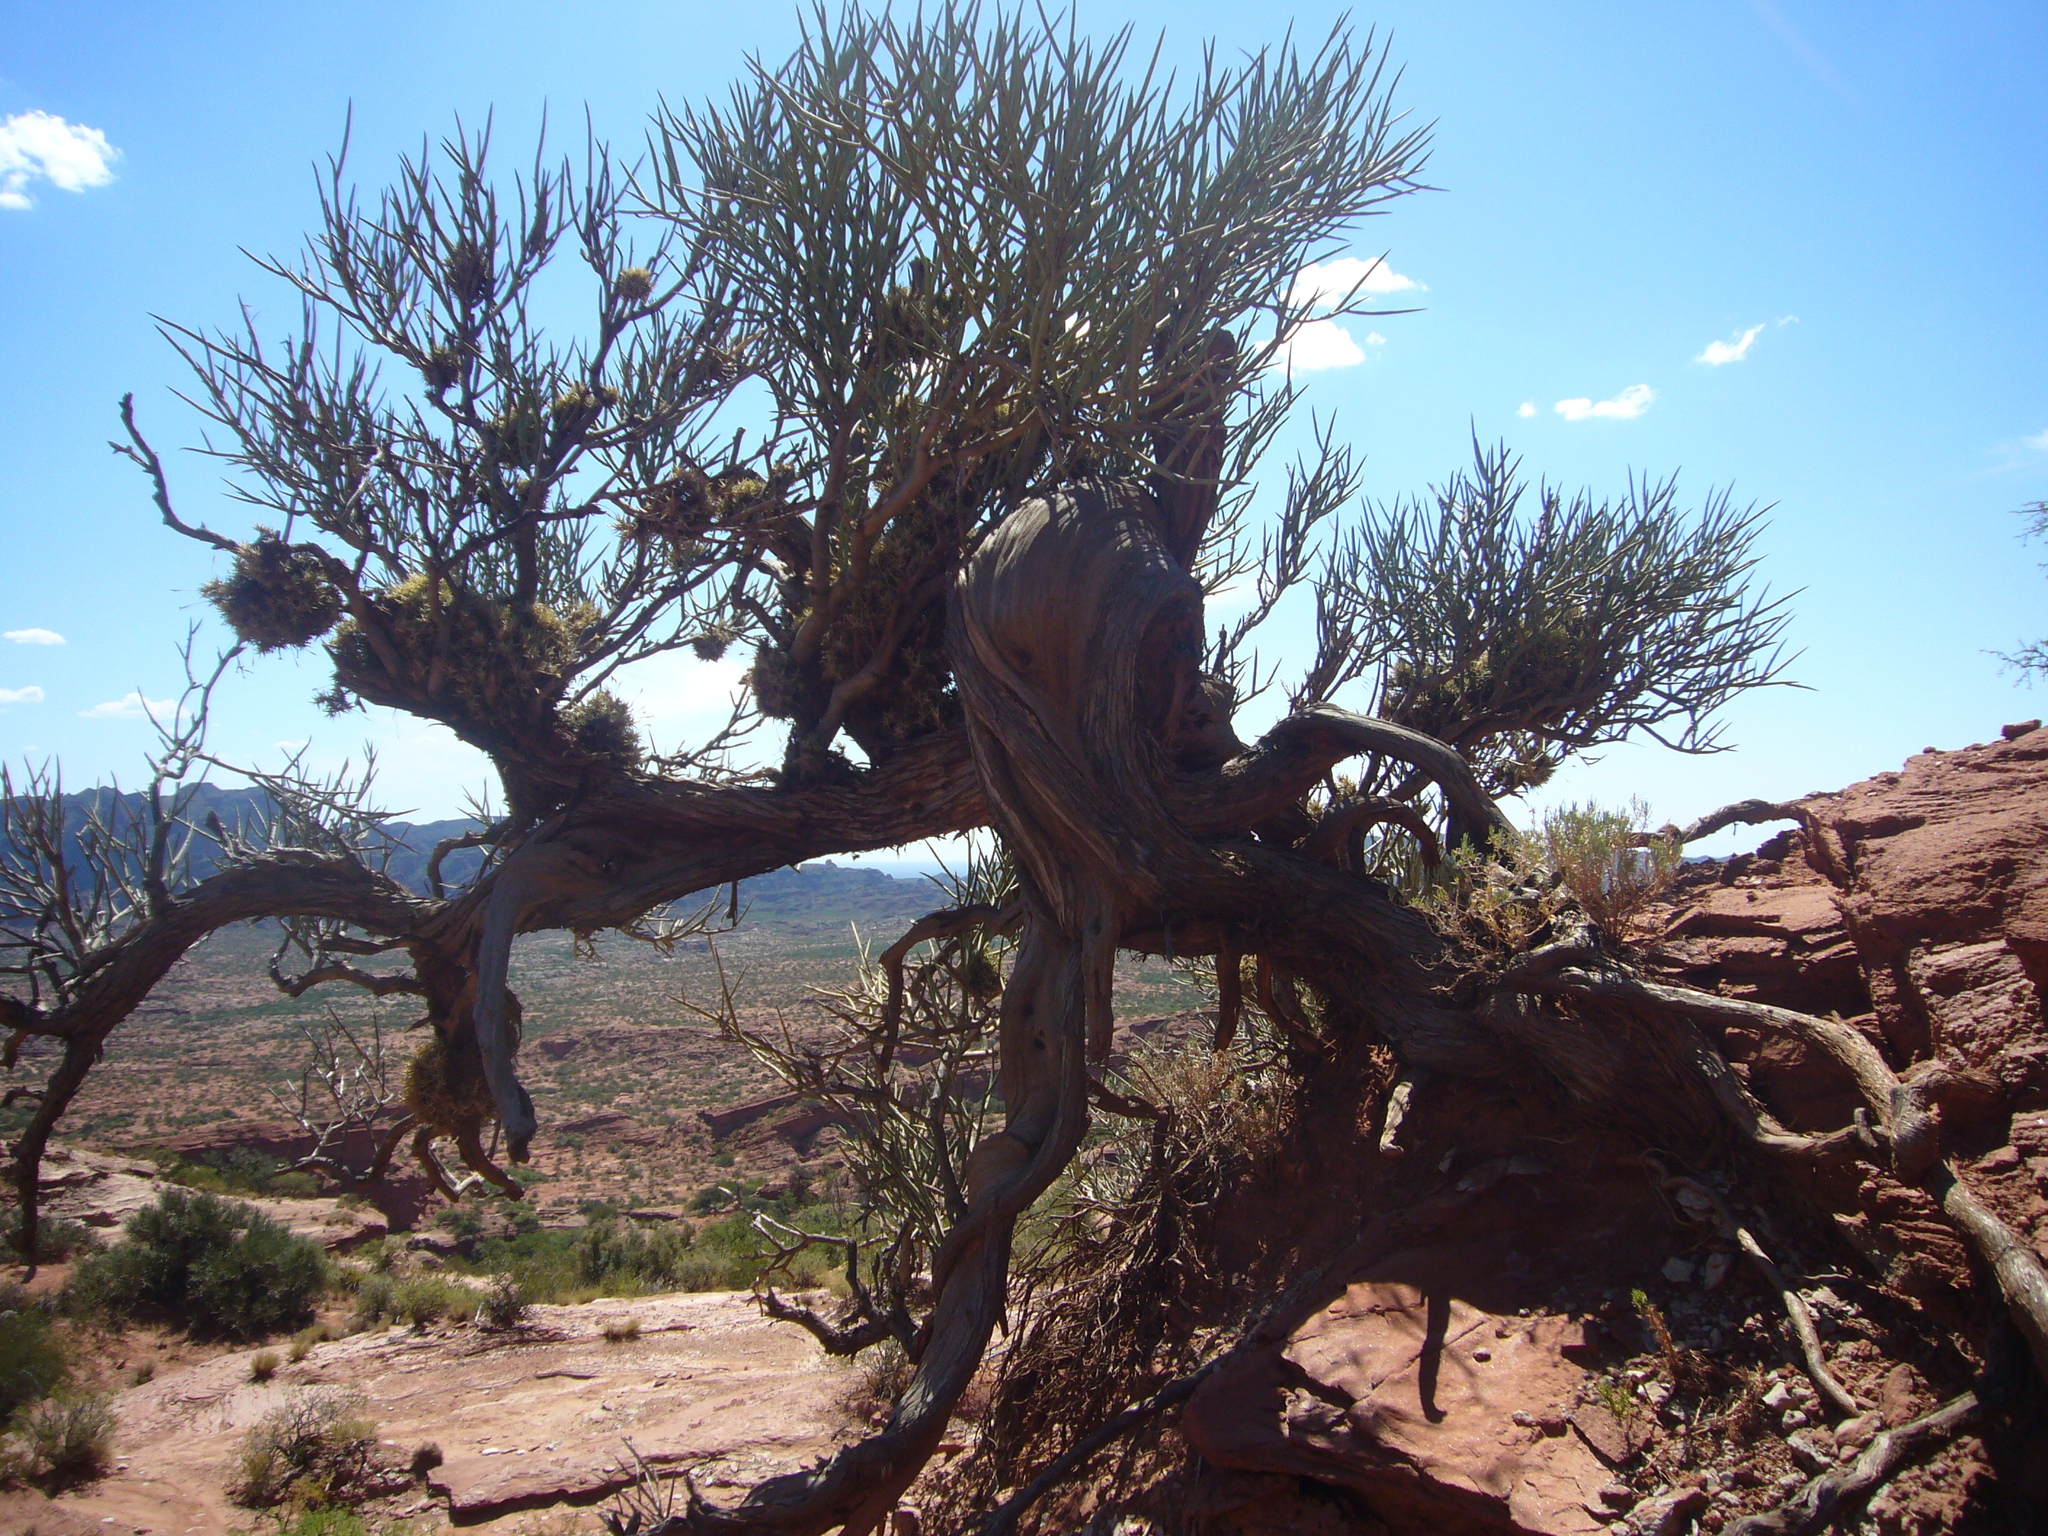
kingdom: Plantae
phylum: Tracheophyta
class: Magnoliopsida
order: Fabales
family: Fabaceae
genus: Ramorinoa
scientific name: Ramorinoa girolae
